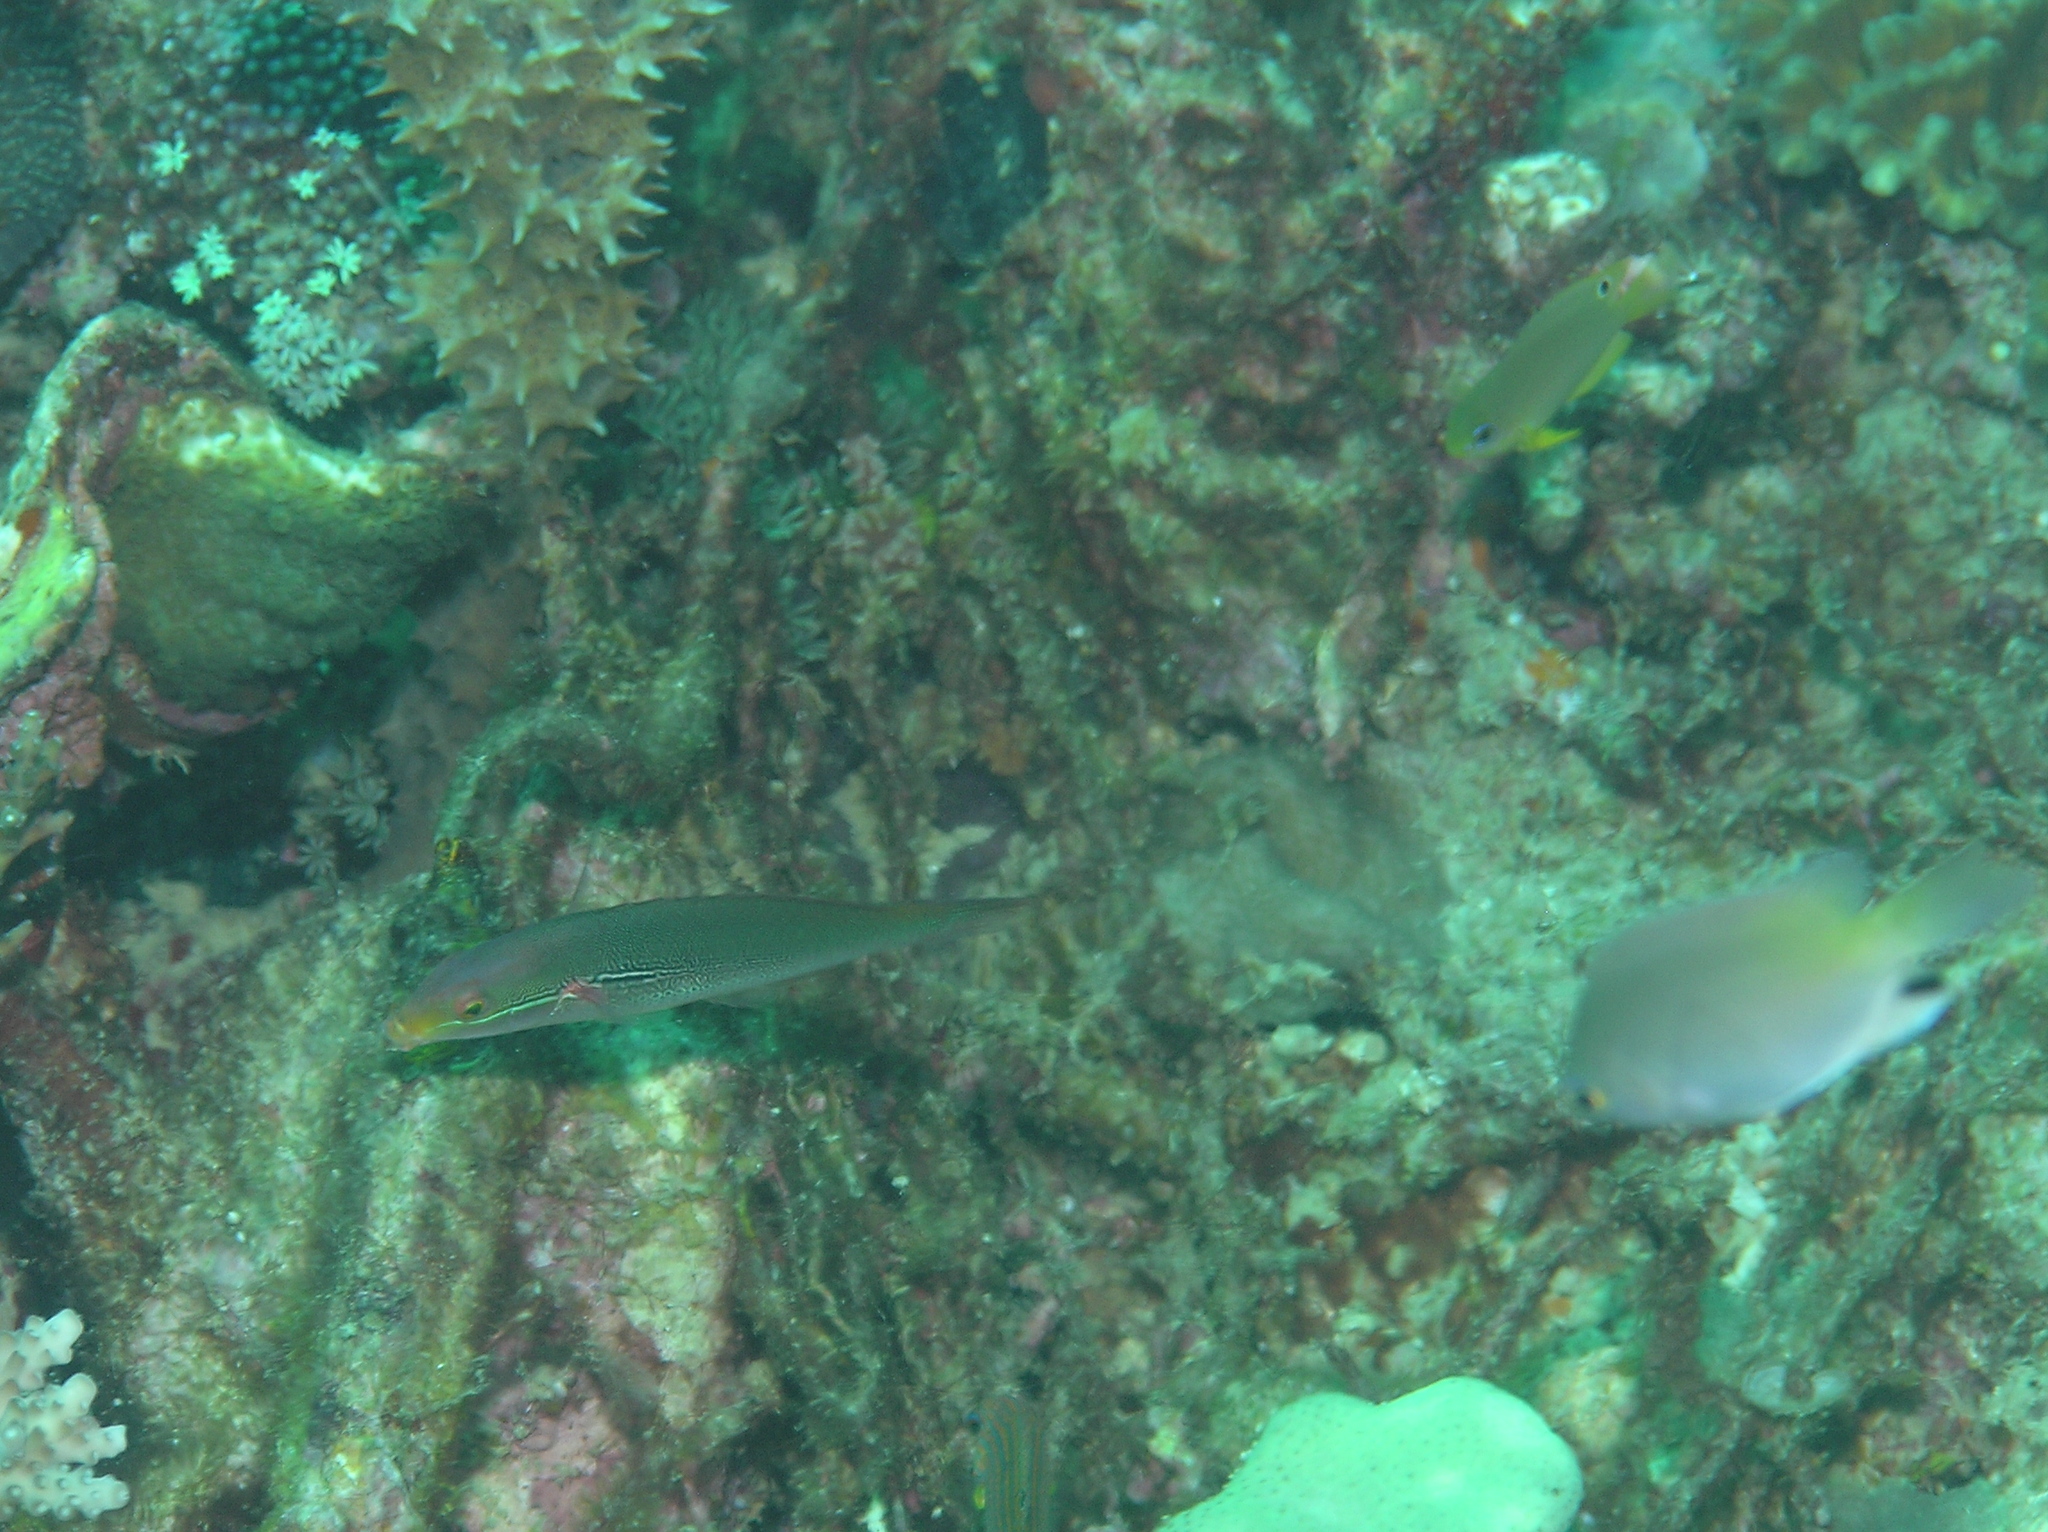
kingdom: Animalia
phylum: Chordata
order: Perciformes
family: Labridae
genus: Stethojulis
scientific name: Stethojulis interrupta
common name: Cutribbon wrasse
